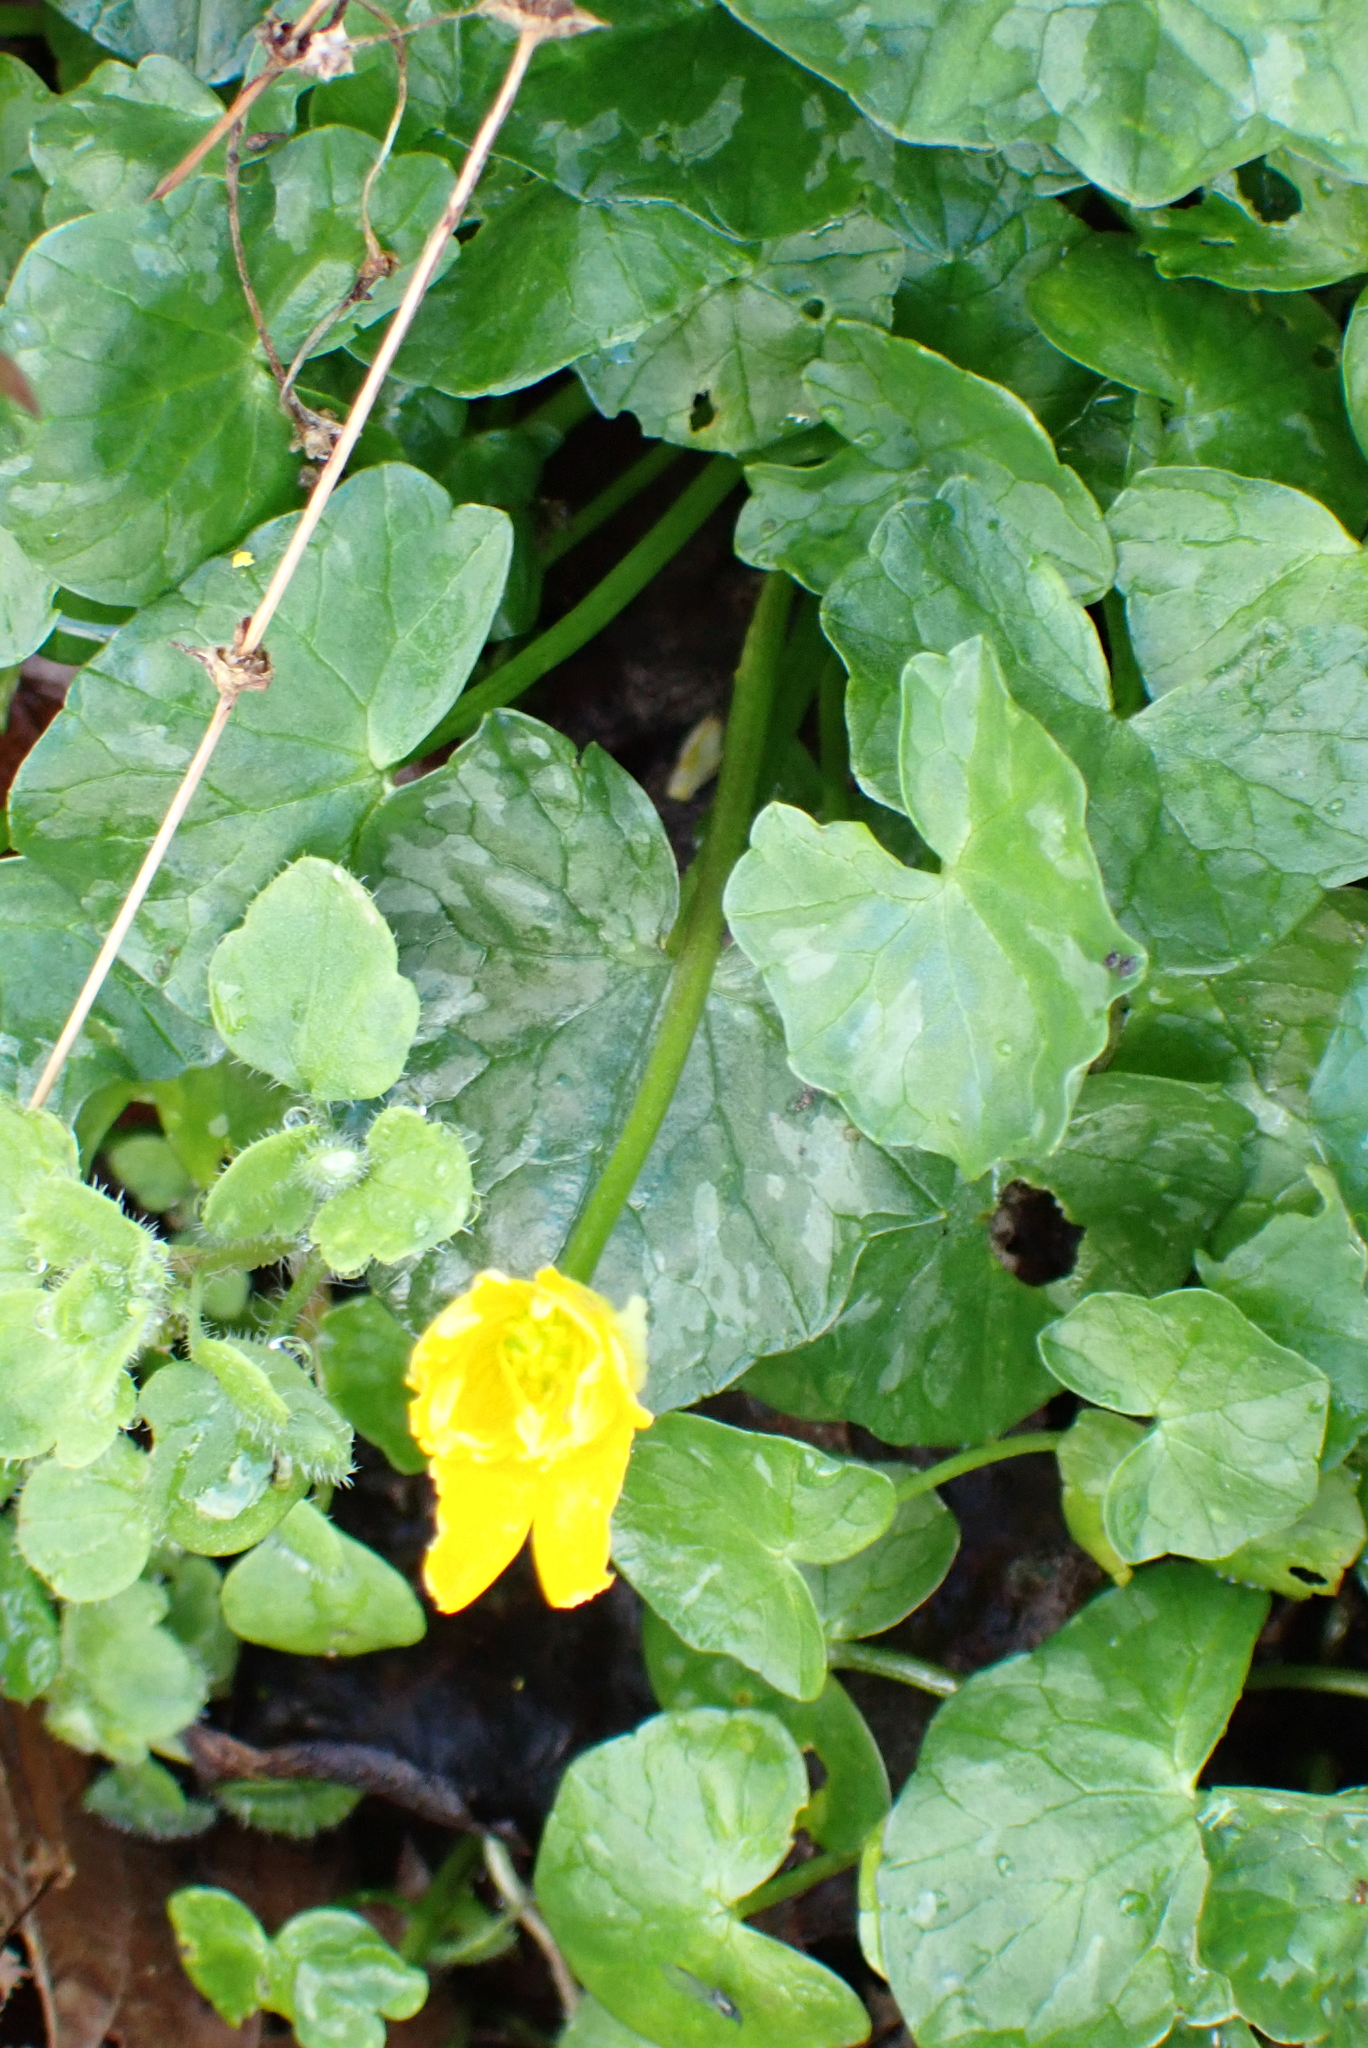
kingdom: Plantae
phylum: Tracheophyta
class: Magnoliopsida
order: Ranunculales
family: Ranunculaceae
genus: Ficaria
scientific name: Ficaria verna
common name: Lesser celandine
